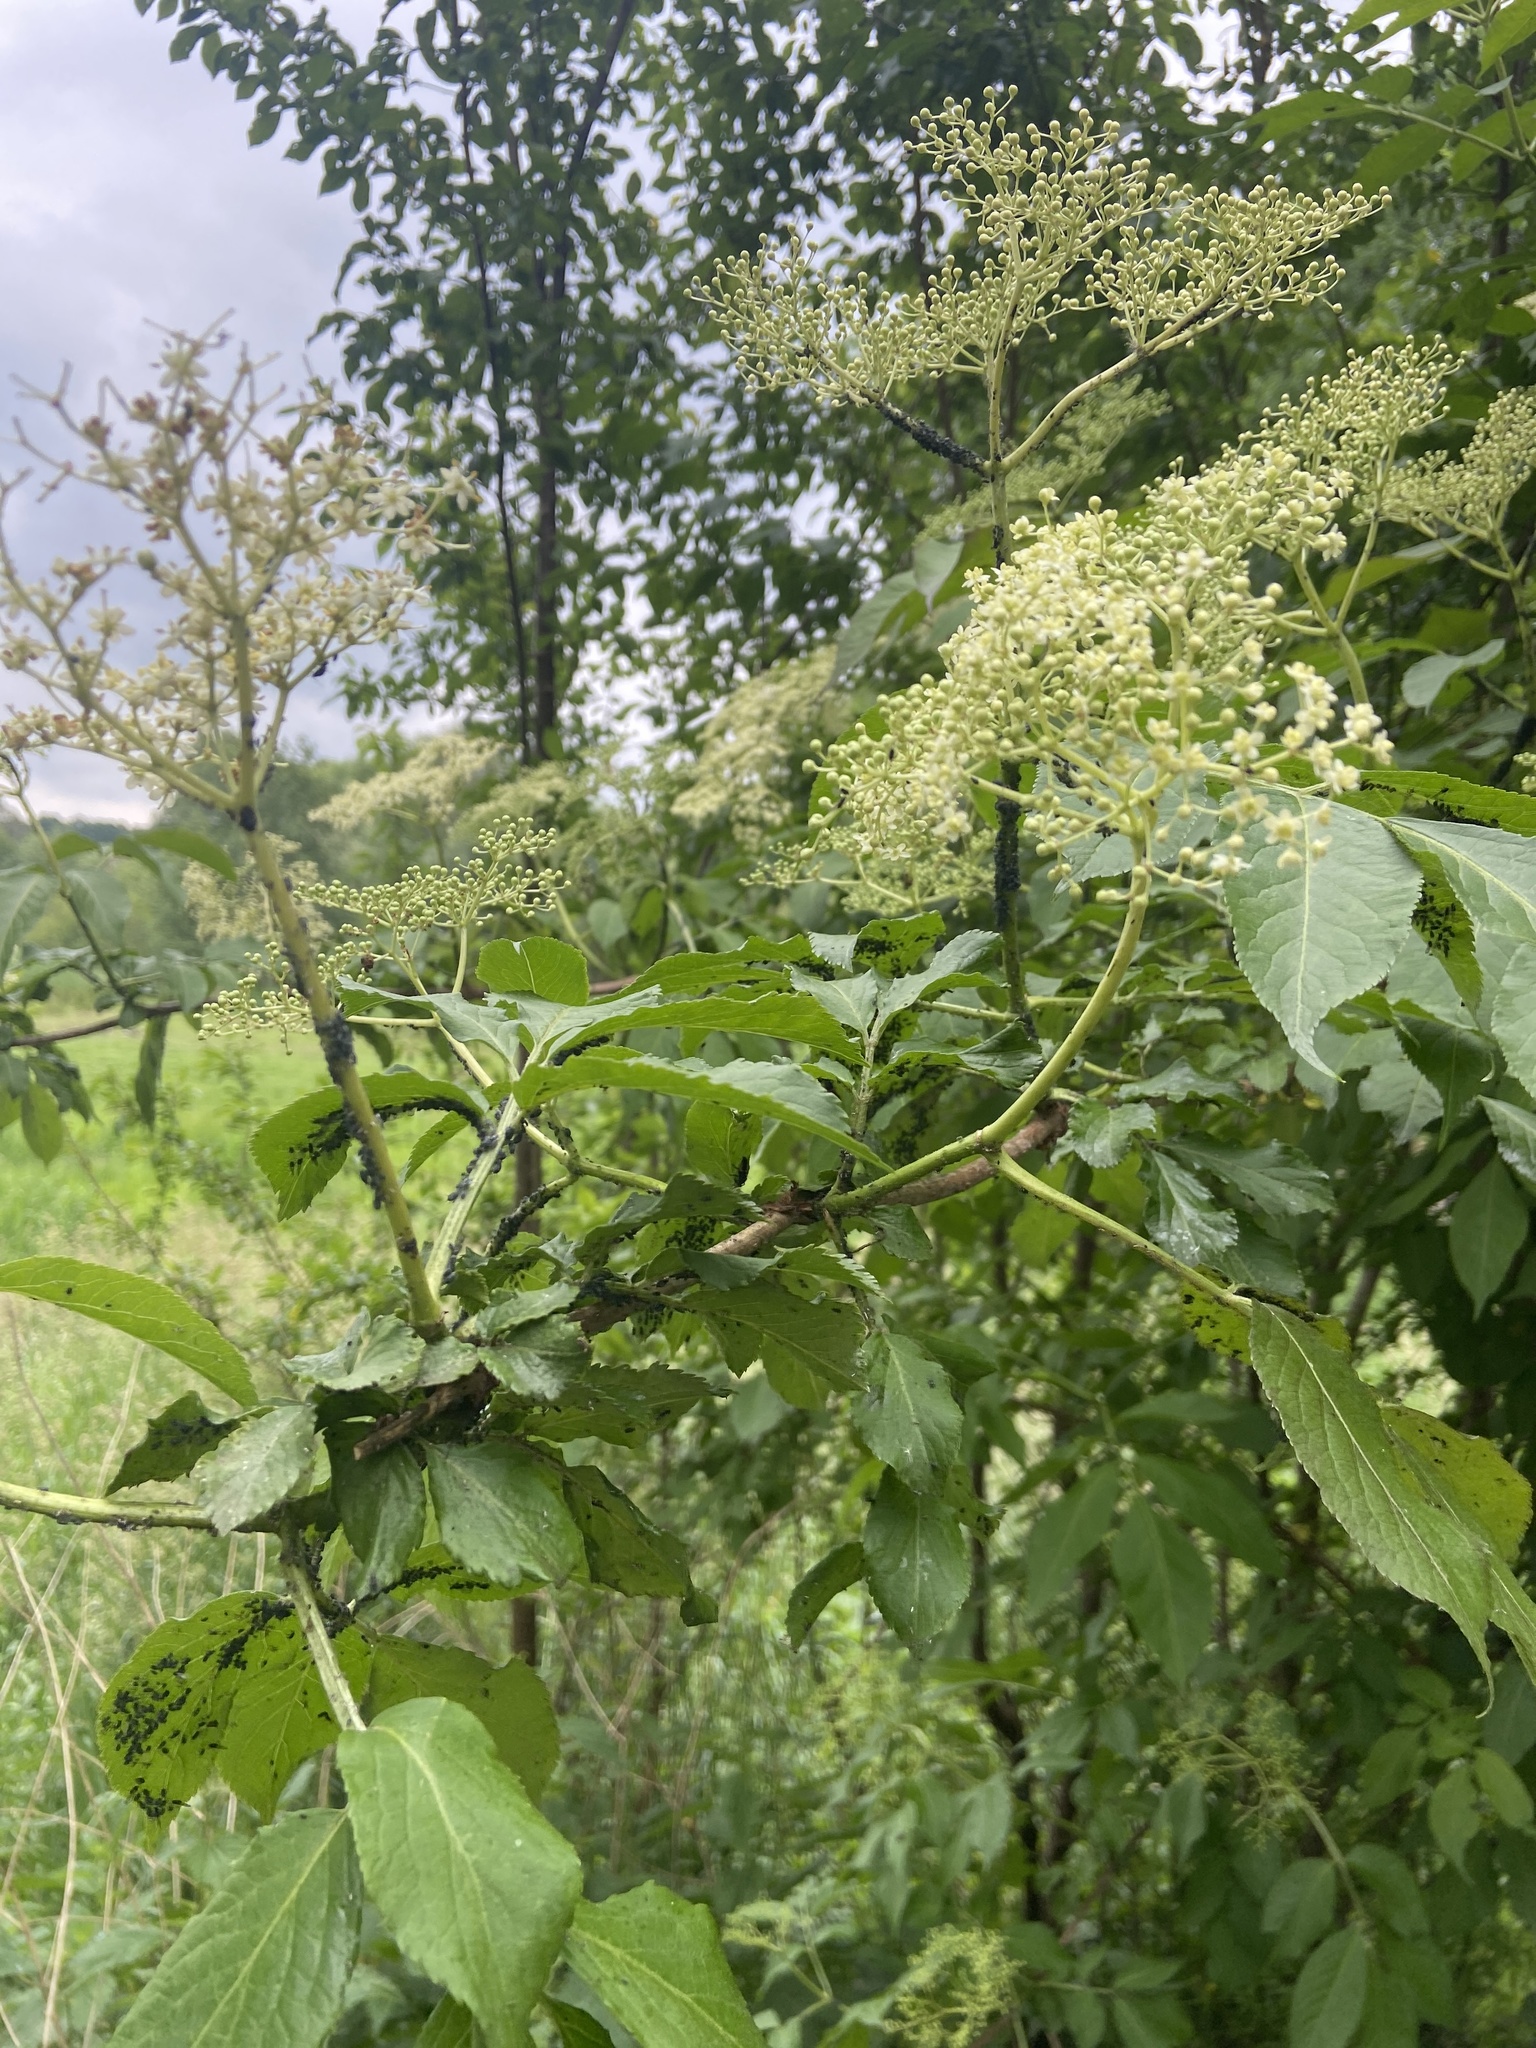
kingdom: Animalia
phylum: Arthropoda
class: Insecta
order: Hemiptera
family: Aphididae
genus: Aphis
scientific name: Aphis sambuci
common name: Elder aphid
